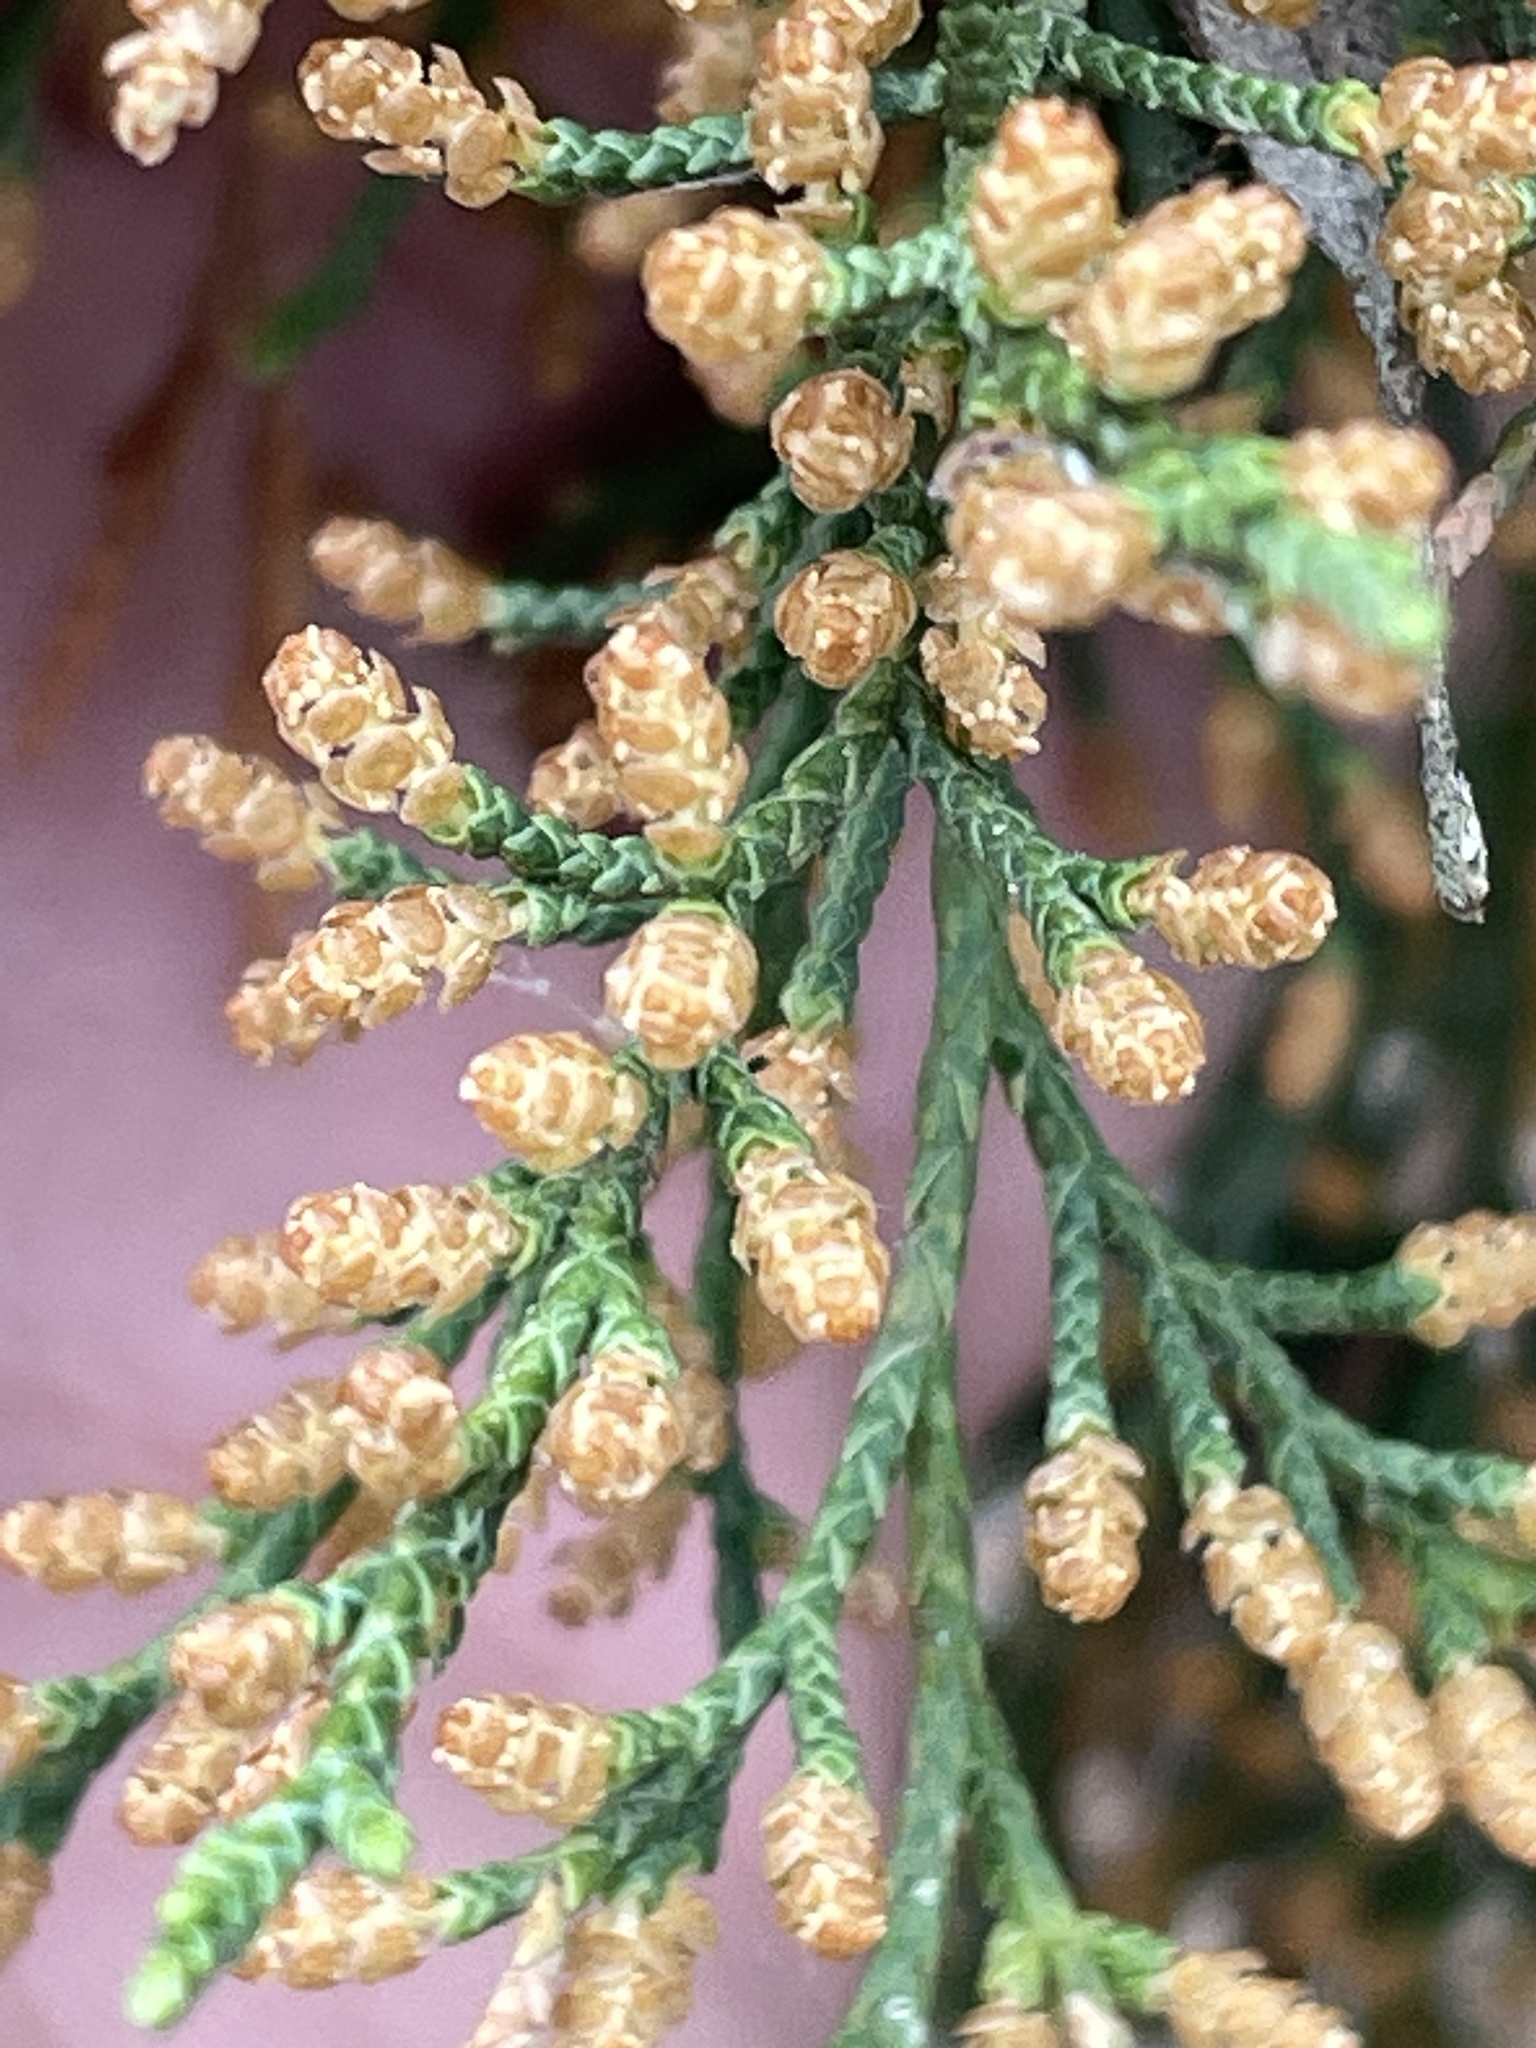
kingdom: Plantae
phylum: Tracheophyta
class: Pinopsida
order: Pinales
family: Cupressaceae
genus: Juniperus
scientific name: Juniperus virginiana
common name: Red juniper
